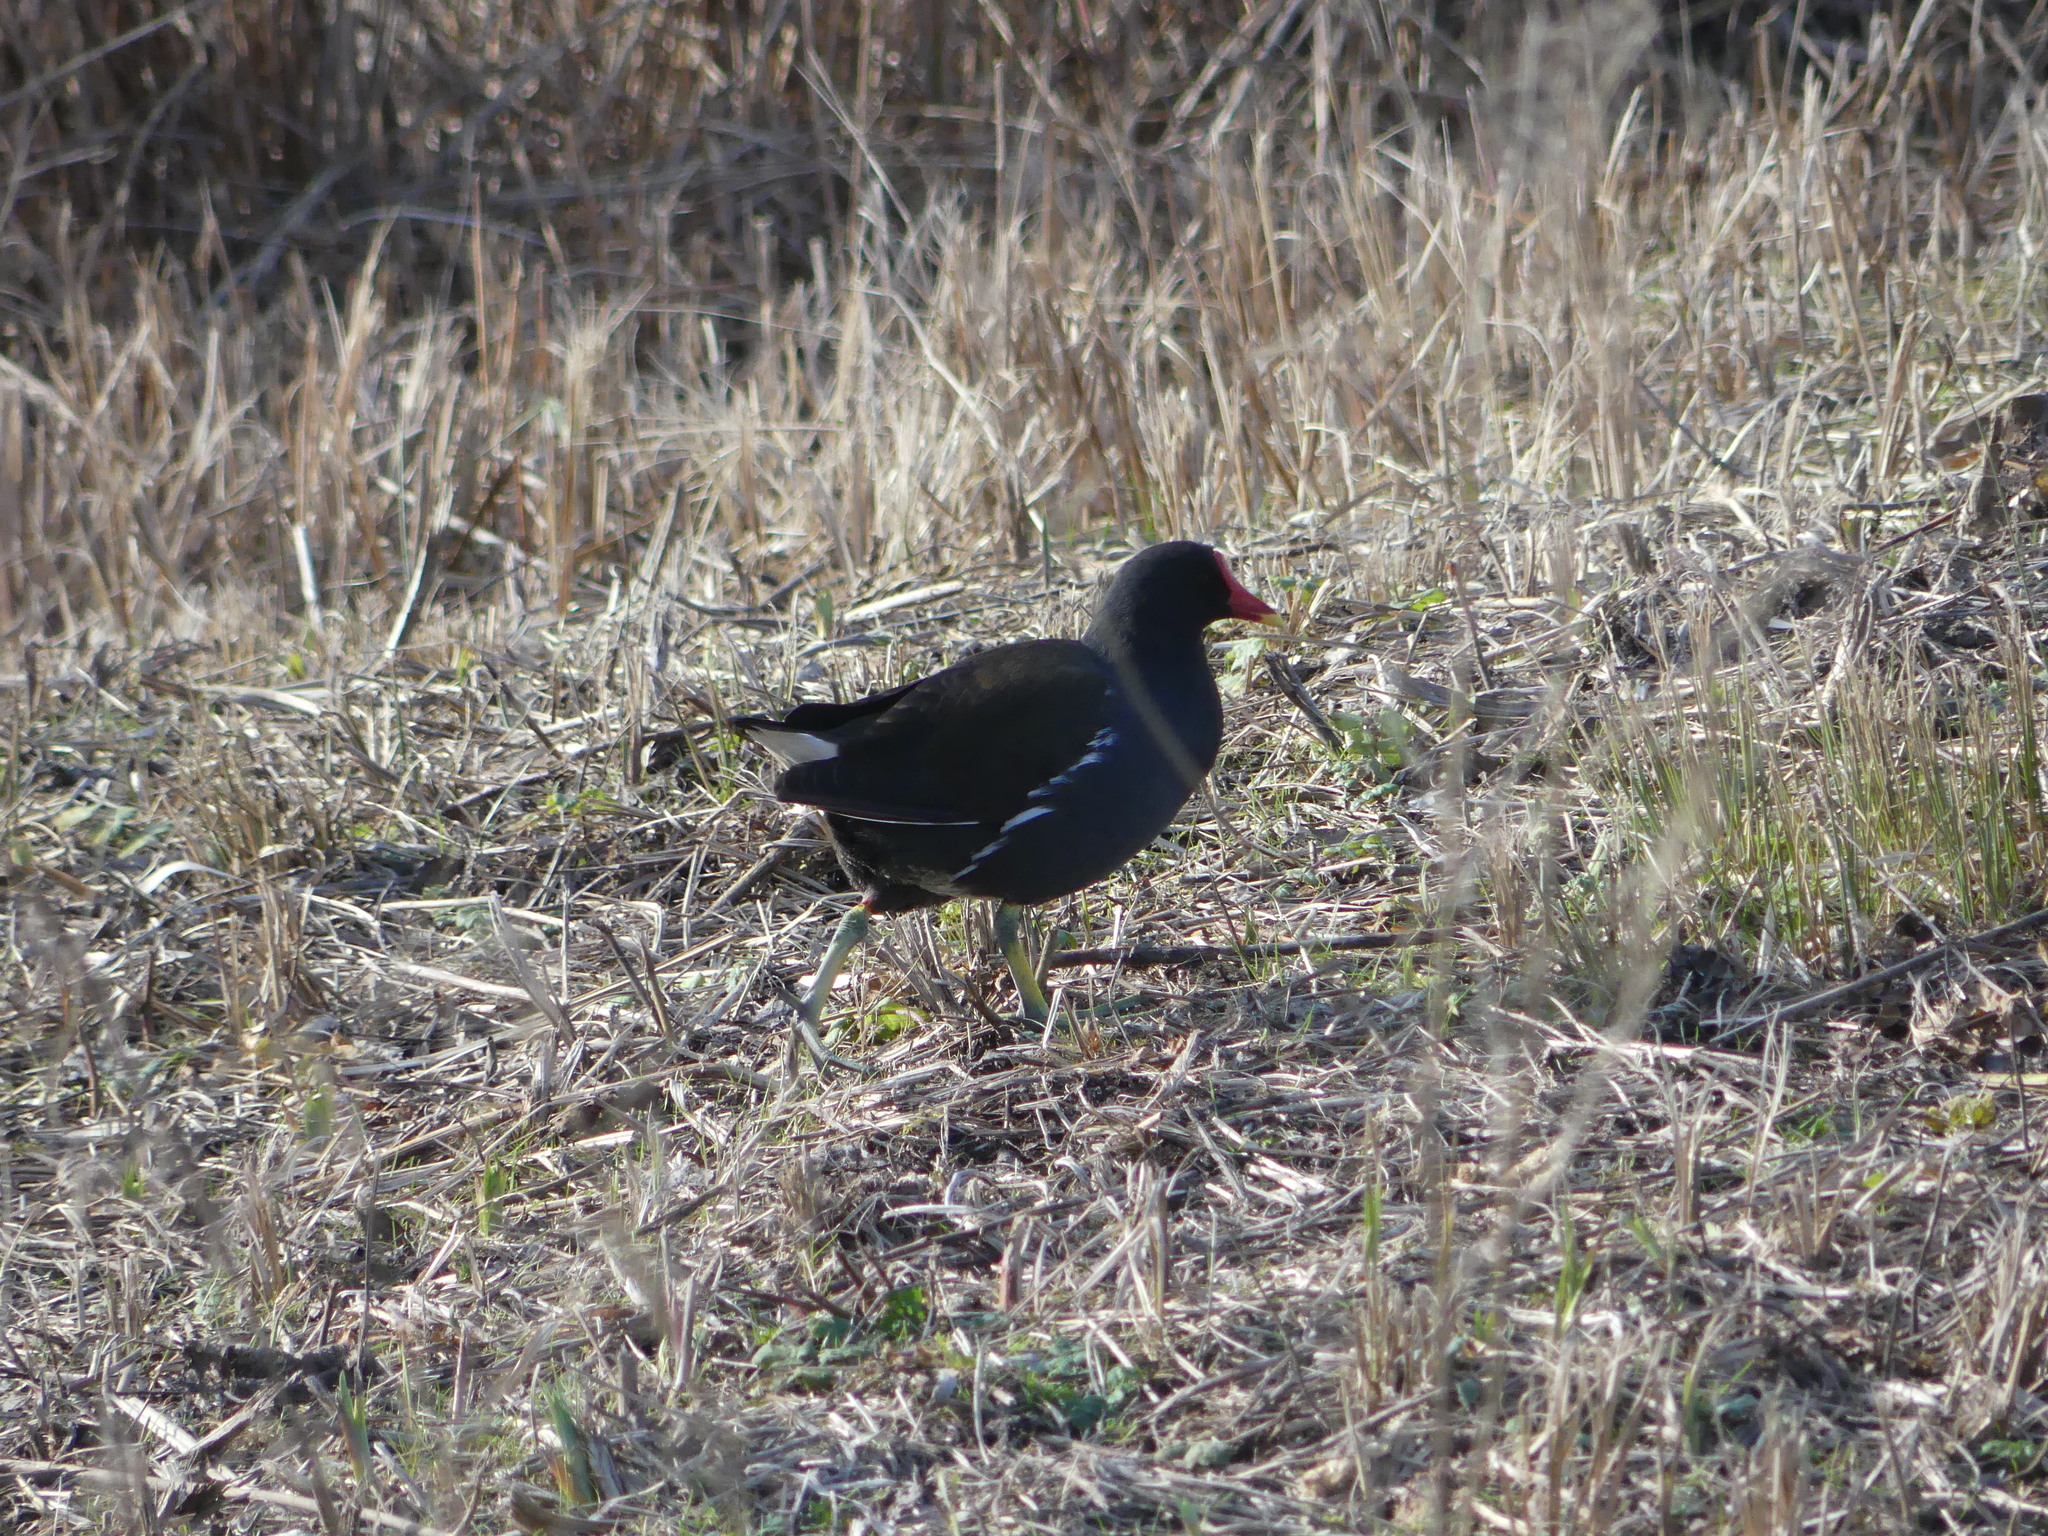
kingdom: Animalia
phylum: Chordata
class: Aves
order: Gruiformes
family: Rallidae
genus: Gallinula
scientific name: Gallinula chloropus
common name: Common moorhen
